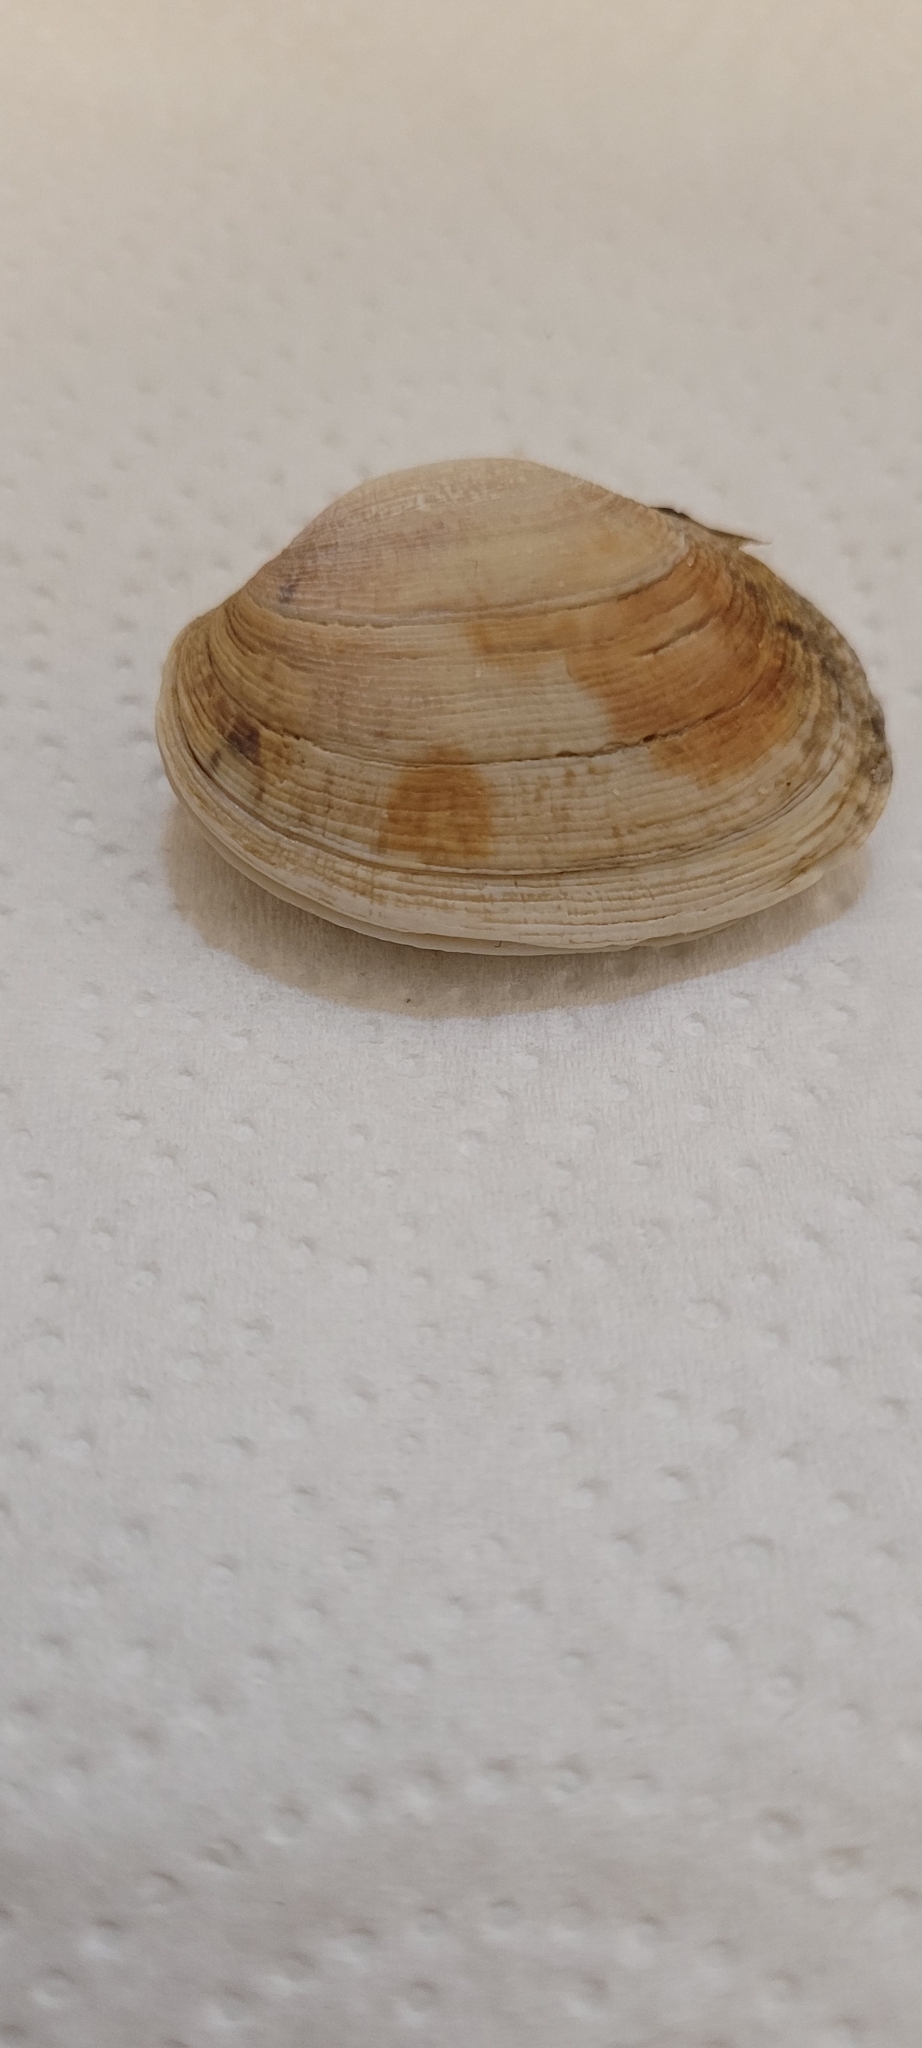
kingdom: Animalia
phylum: Mollusca
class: Bivalvia
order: Venerida
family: Veneridae
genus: Venerupis
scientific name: Venerupis corrugata
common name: Pullet carpet shell
